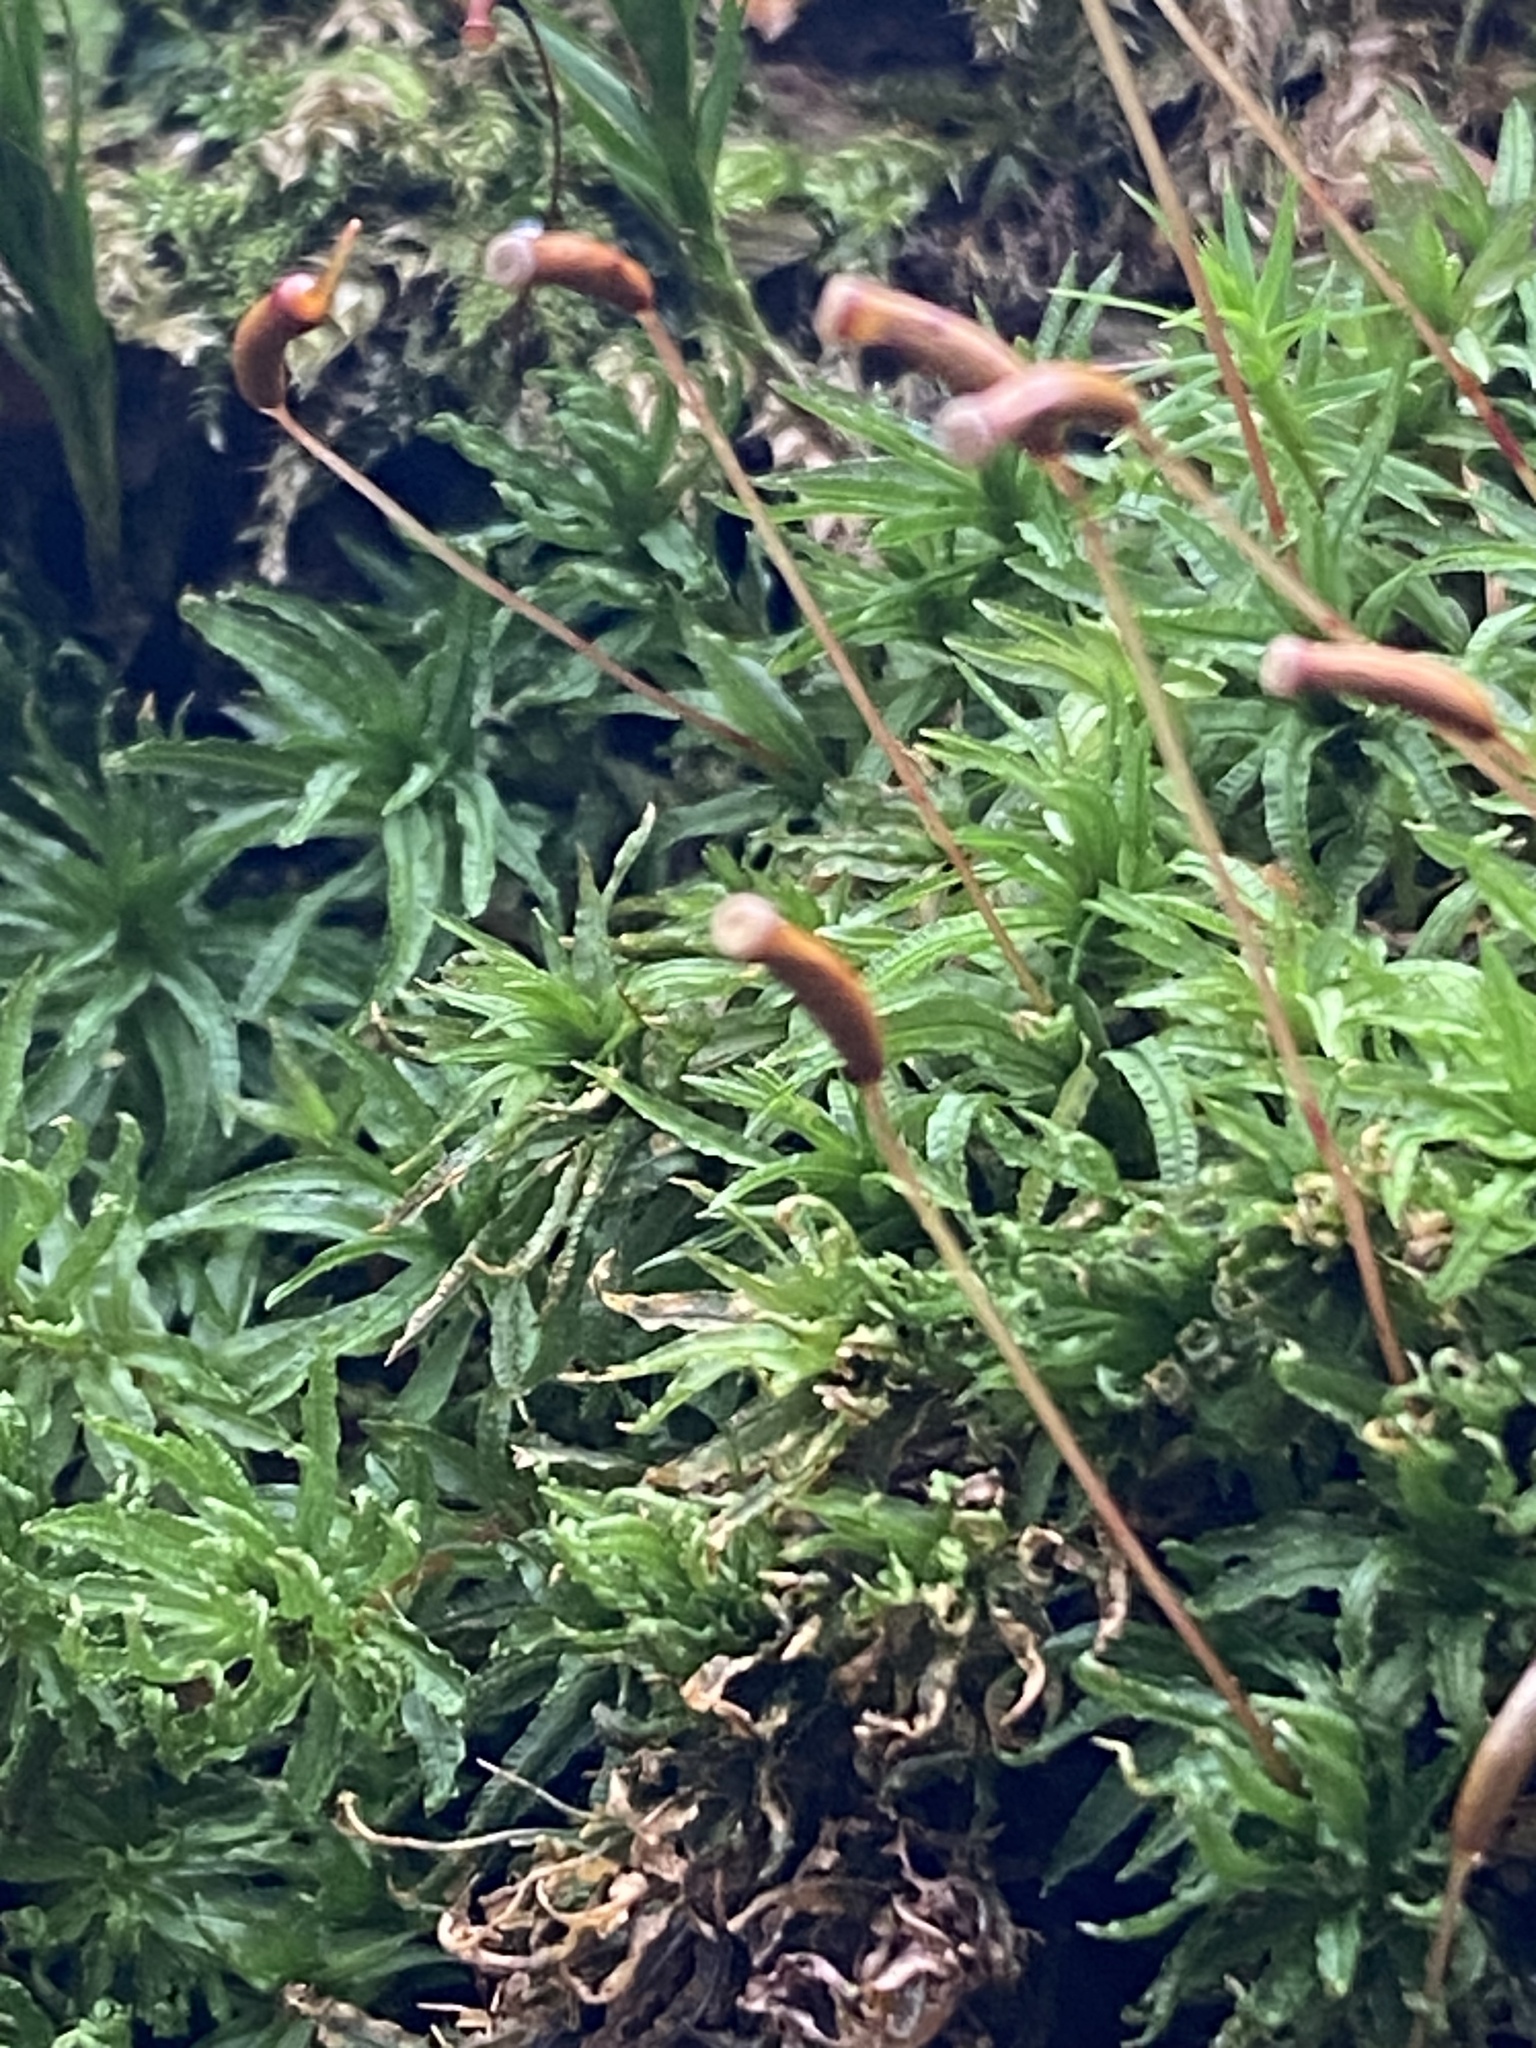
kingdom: Plantae
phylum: Bryophyta
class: Polytrichopsida
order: Polytrichales
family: Polytrichaceae
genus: Atrichum
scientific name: Atrichum undulatum
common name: Common smoothcap
